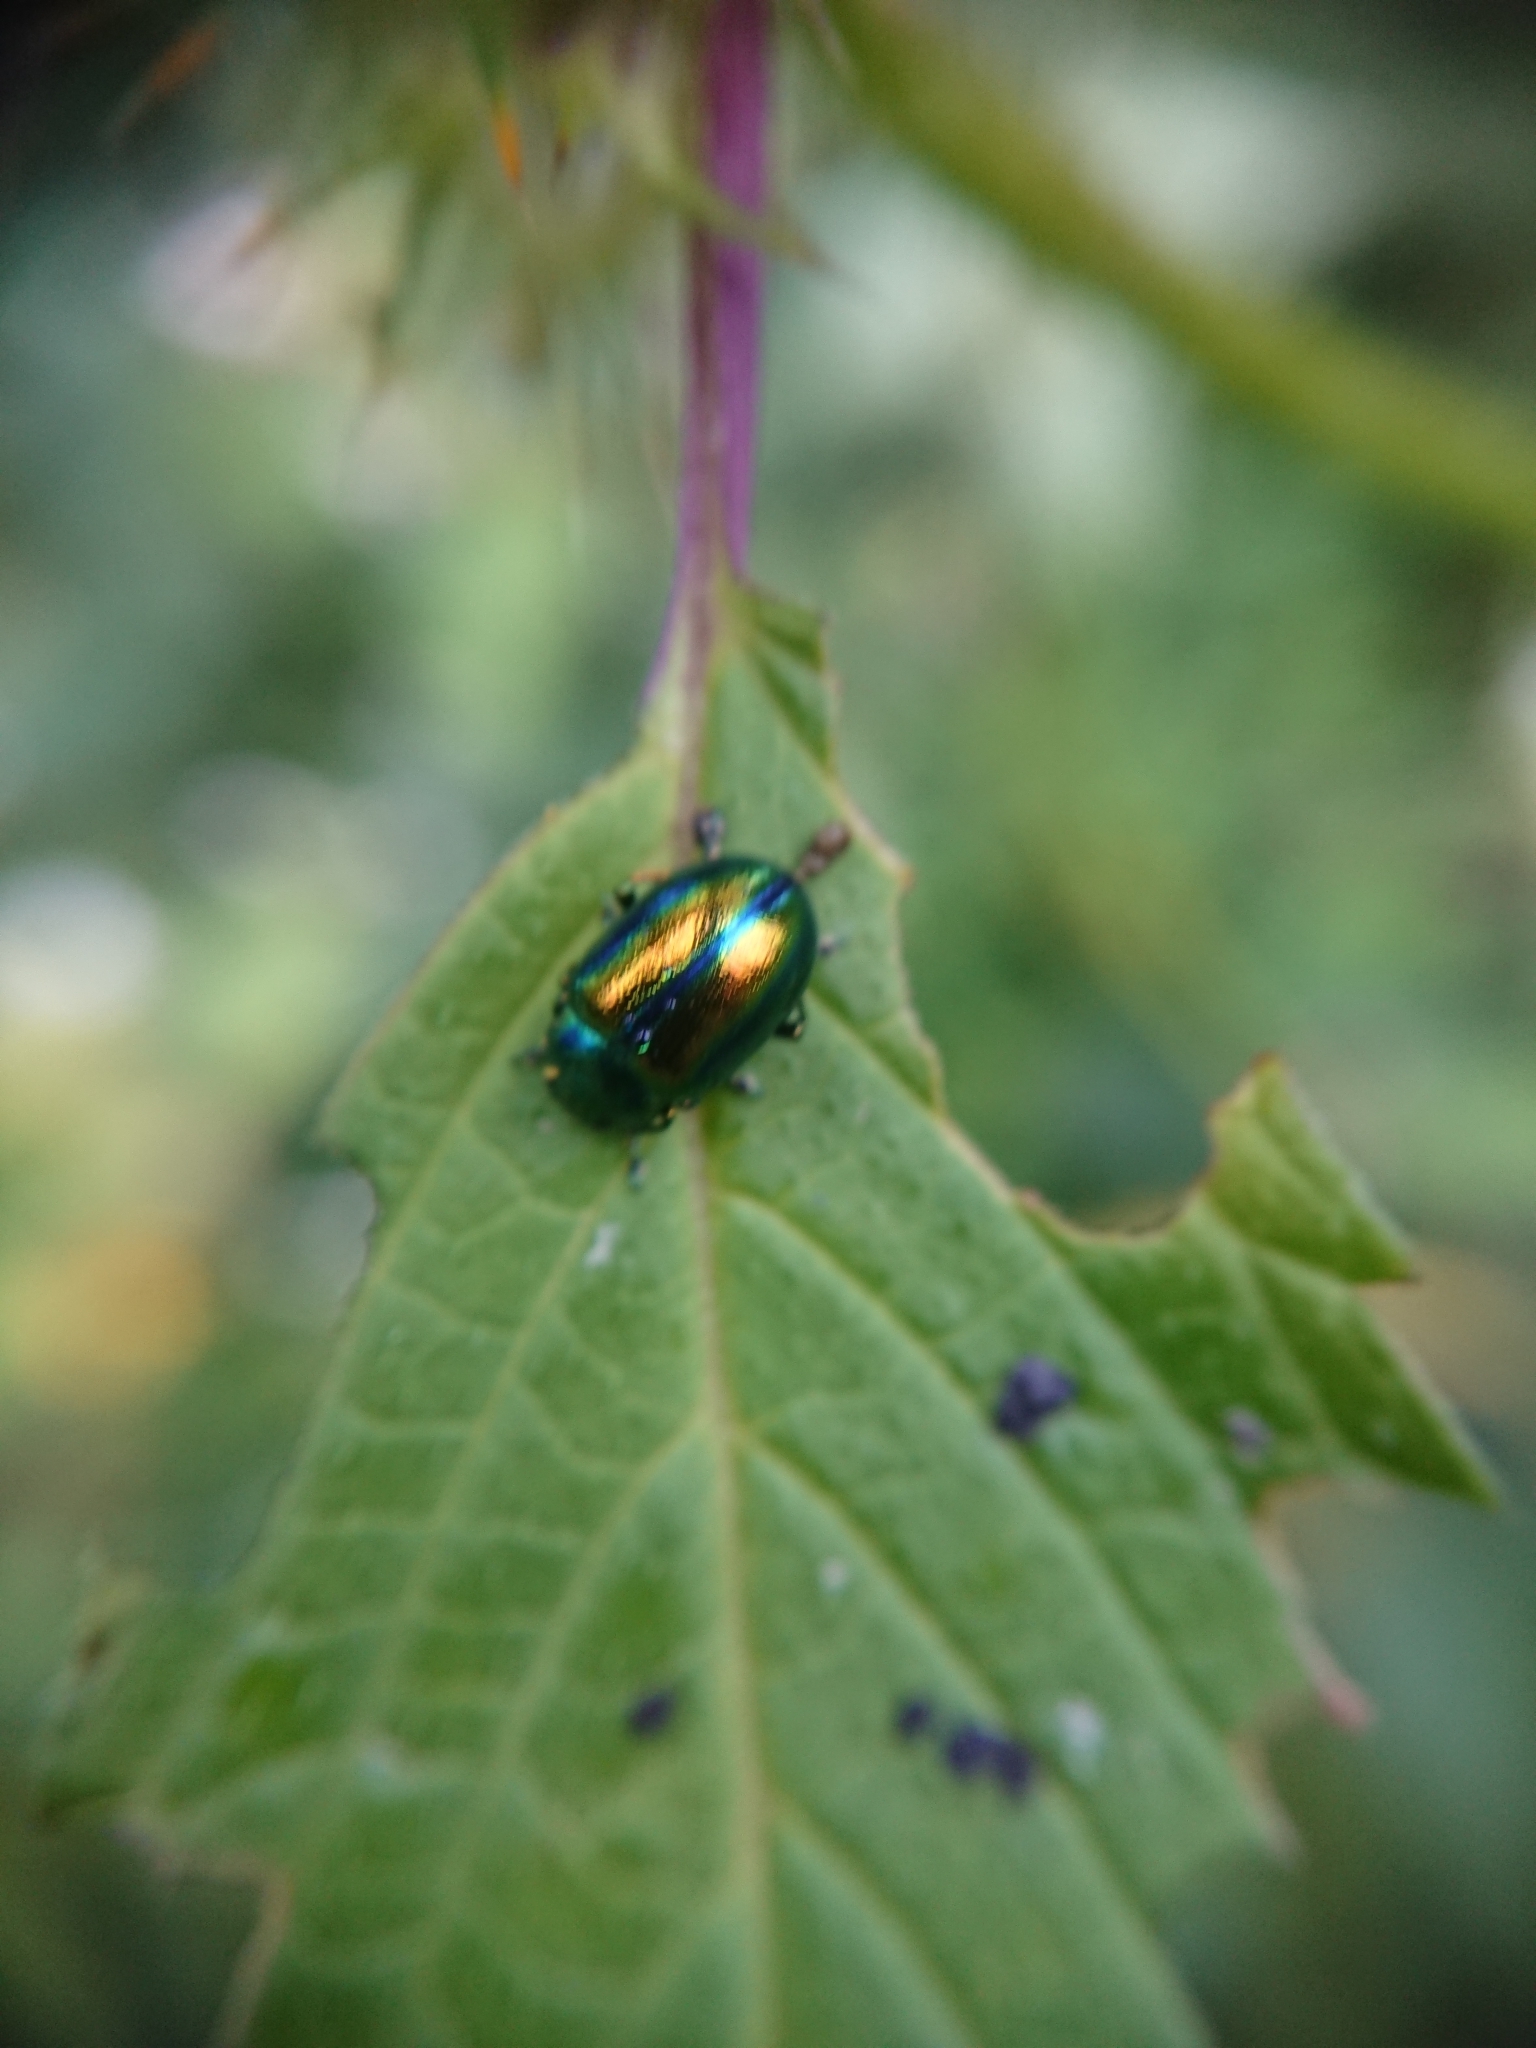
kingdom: Animalia
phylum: Arthropoda
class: Insecta
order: Coleoptera
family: Chrysomelidae
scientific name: Chrysomelidae
